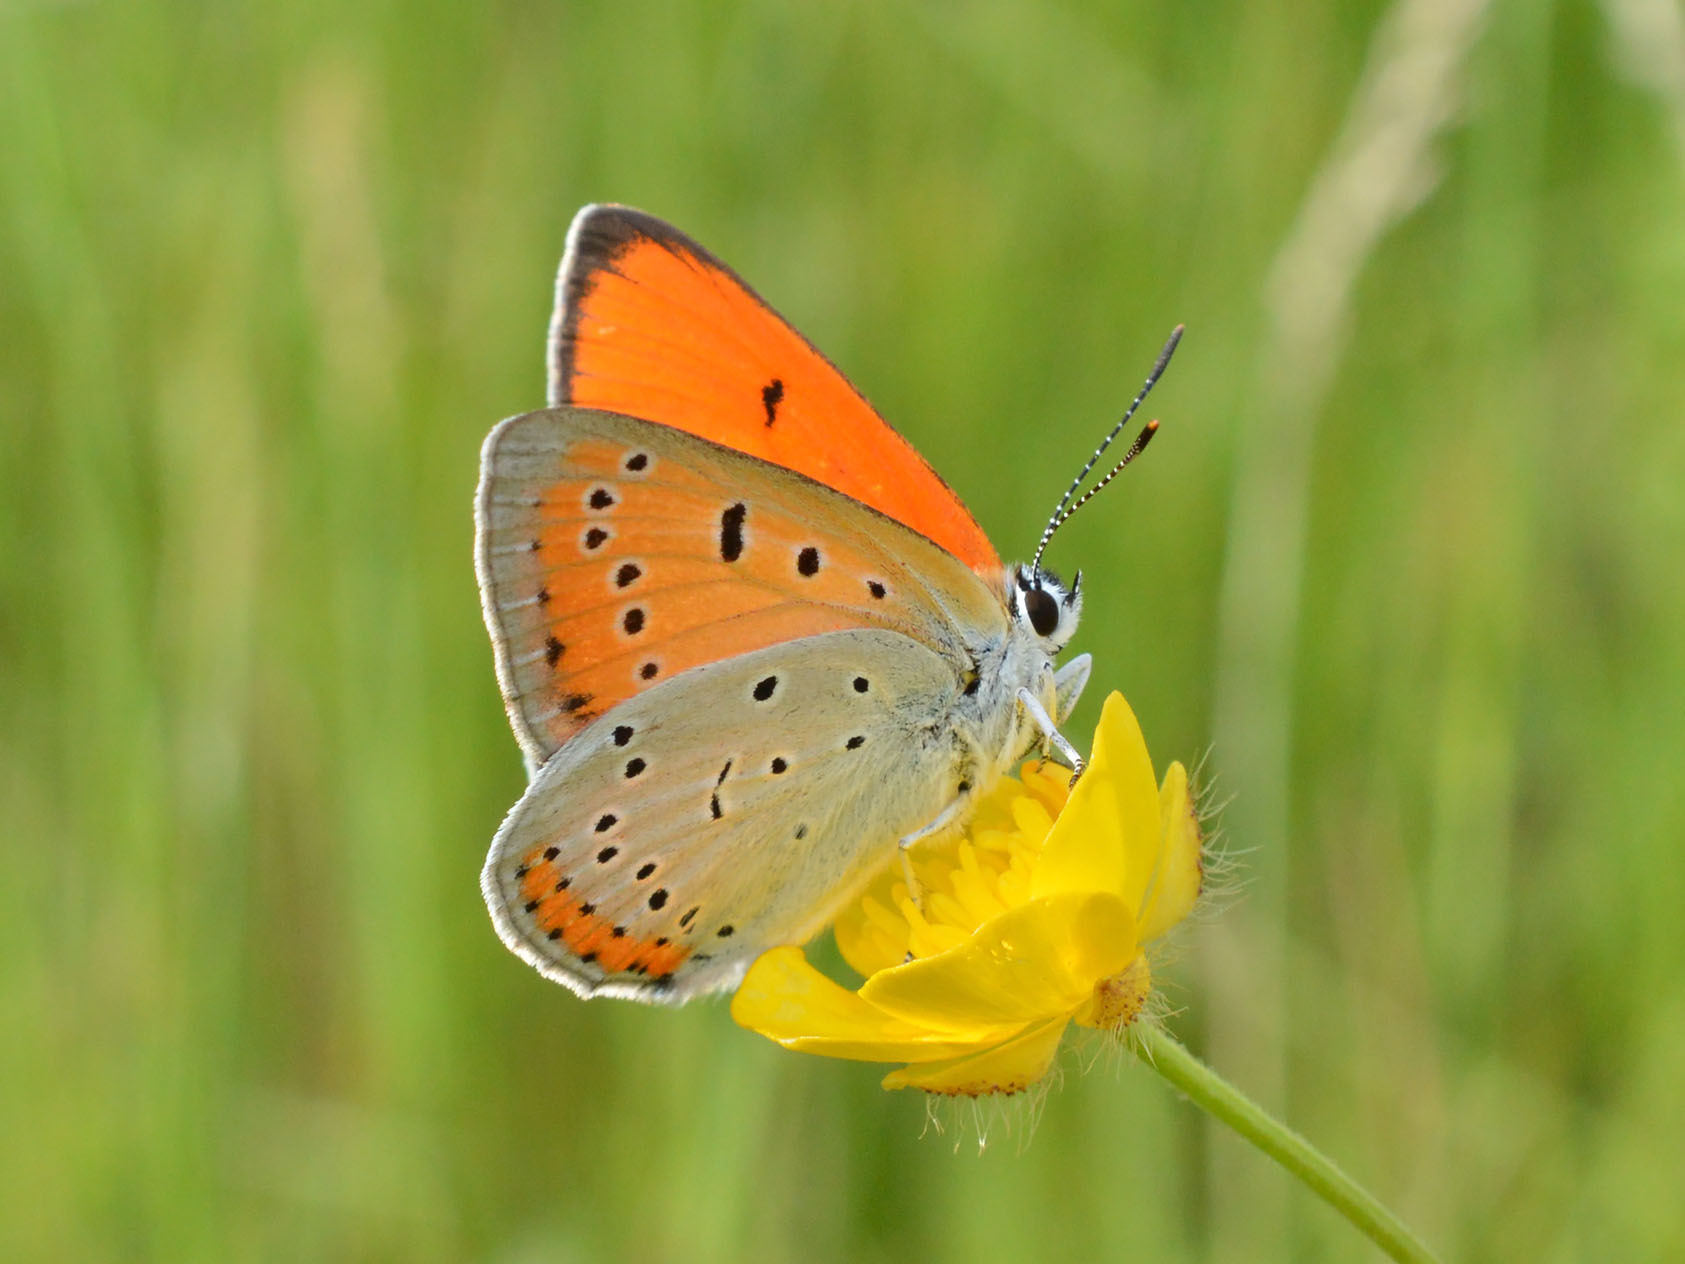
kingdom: Animalia
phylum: Arthropoda
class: Insecta
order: Lepidoptera
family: Lycaenidae
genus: Lycaena
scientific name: Lycaena dispar
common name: Large copper
